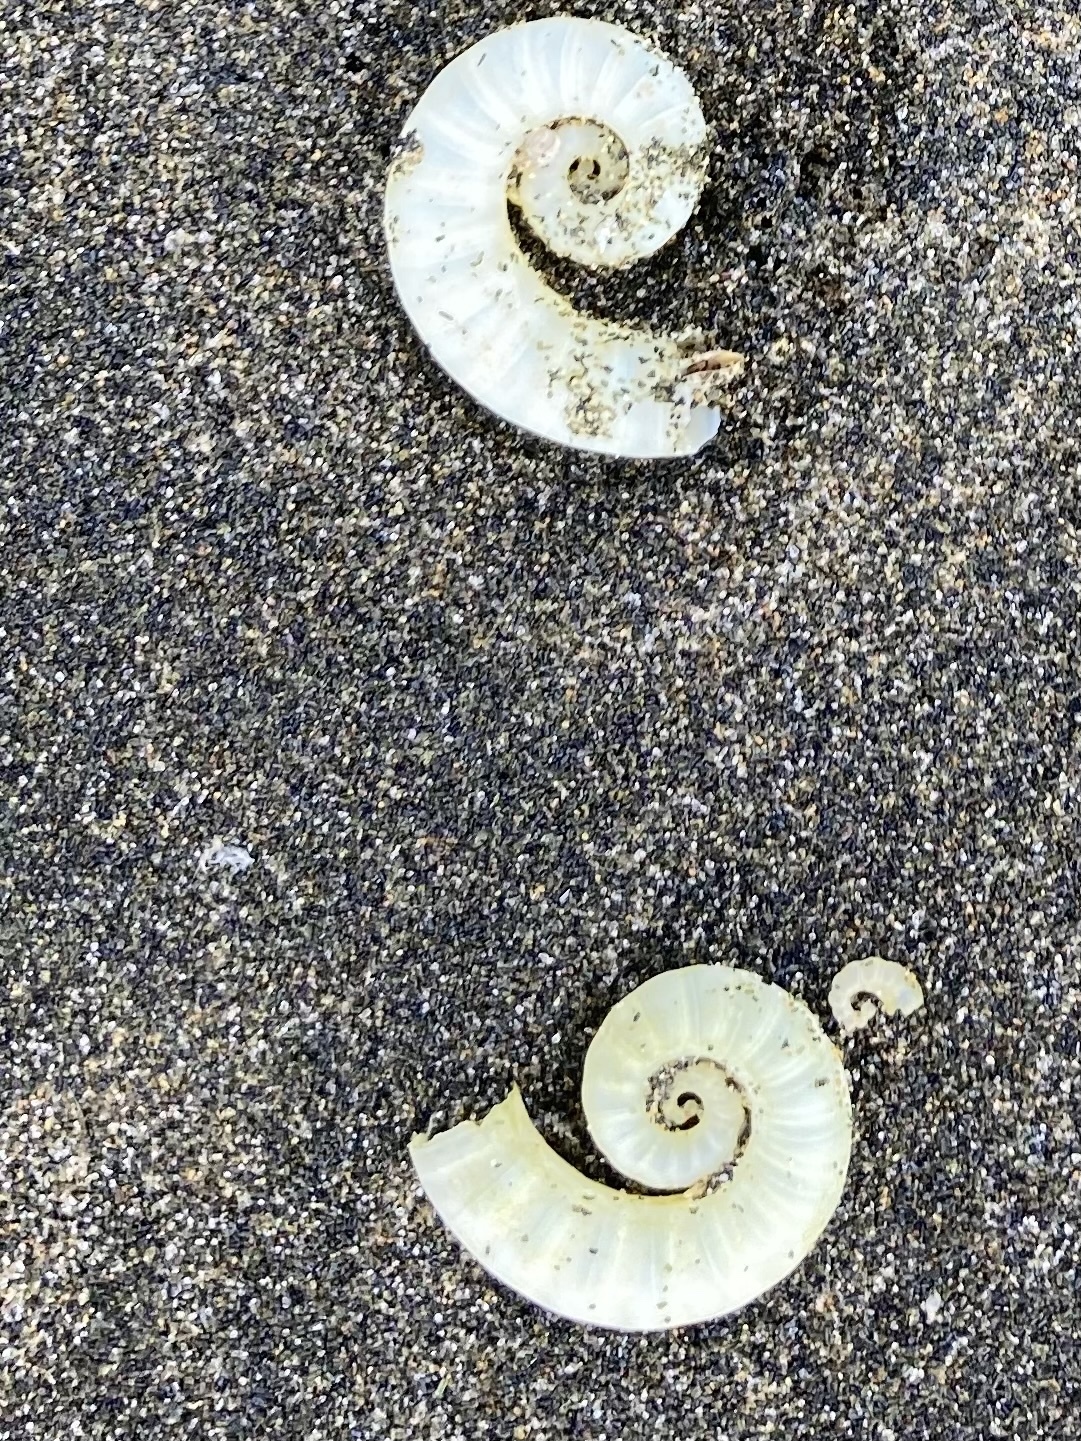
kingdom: Animalia
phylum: Mollusca
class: Cephalopoda
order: Spirulida
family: Spirulidae
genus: Spirula
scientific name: Spirula spirula
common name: Ram's horn squid
